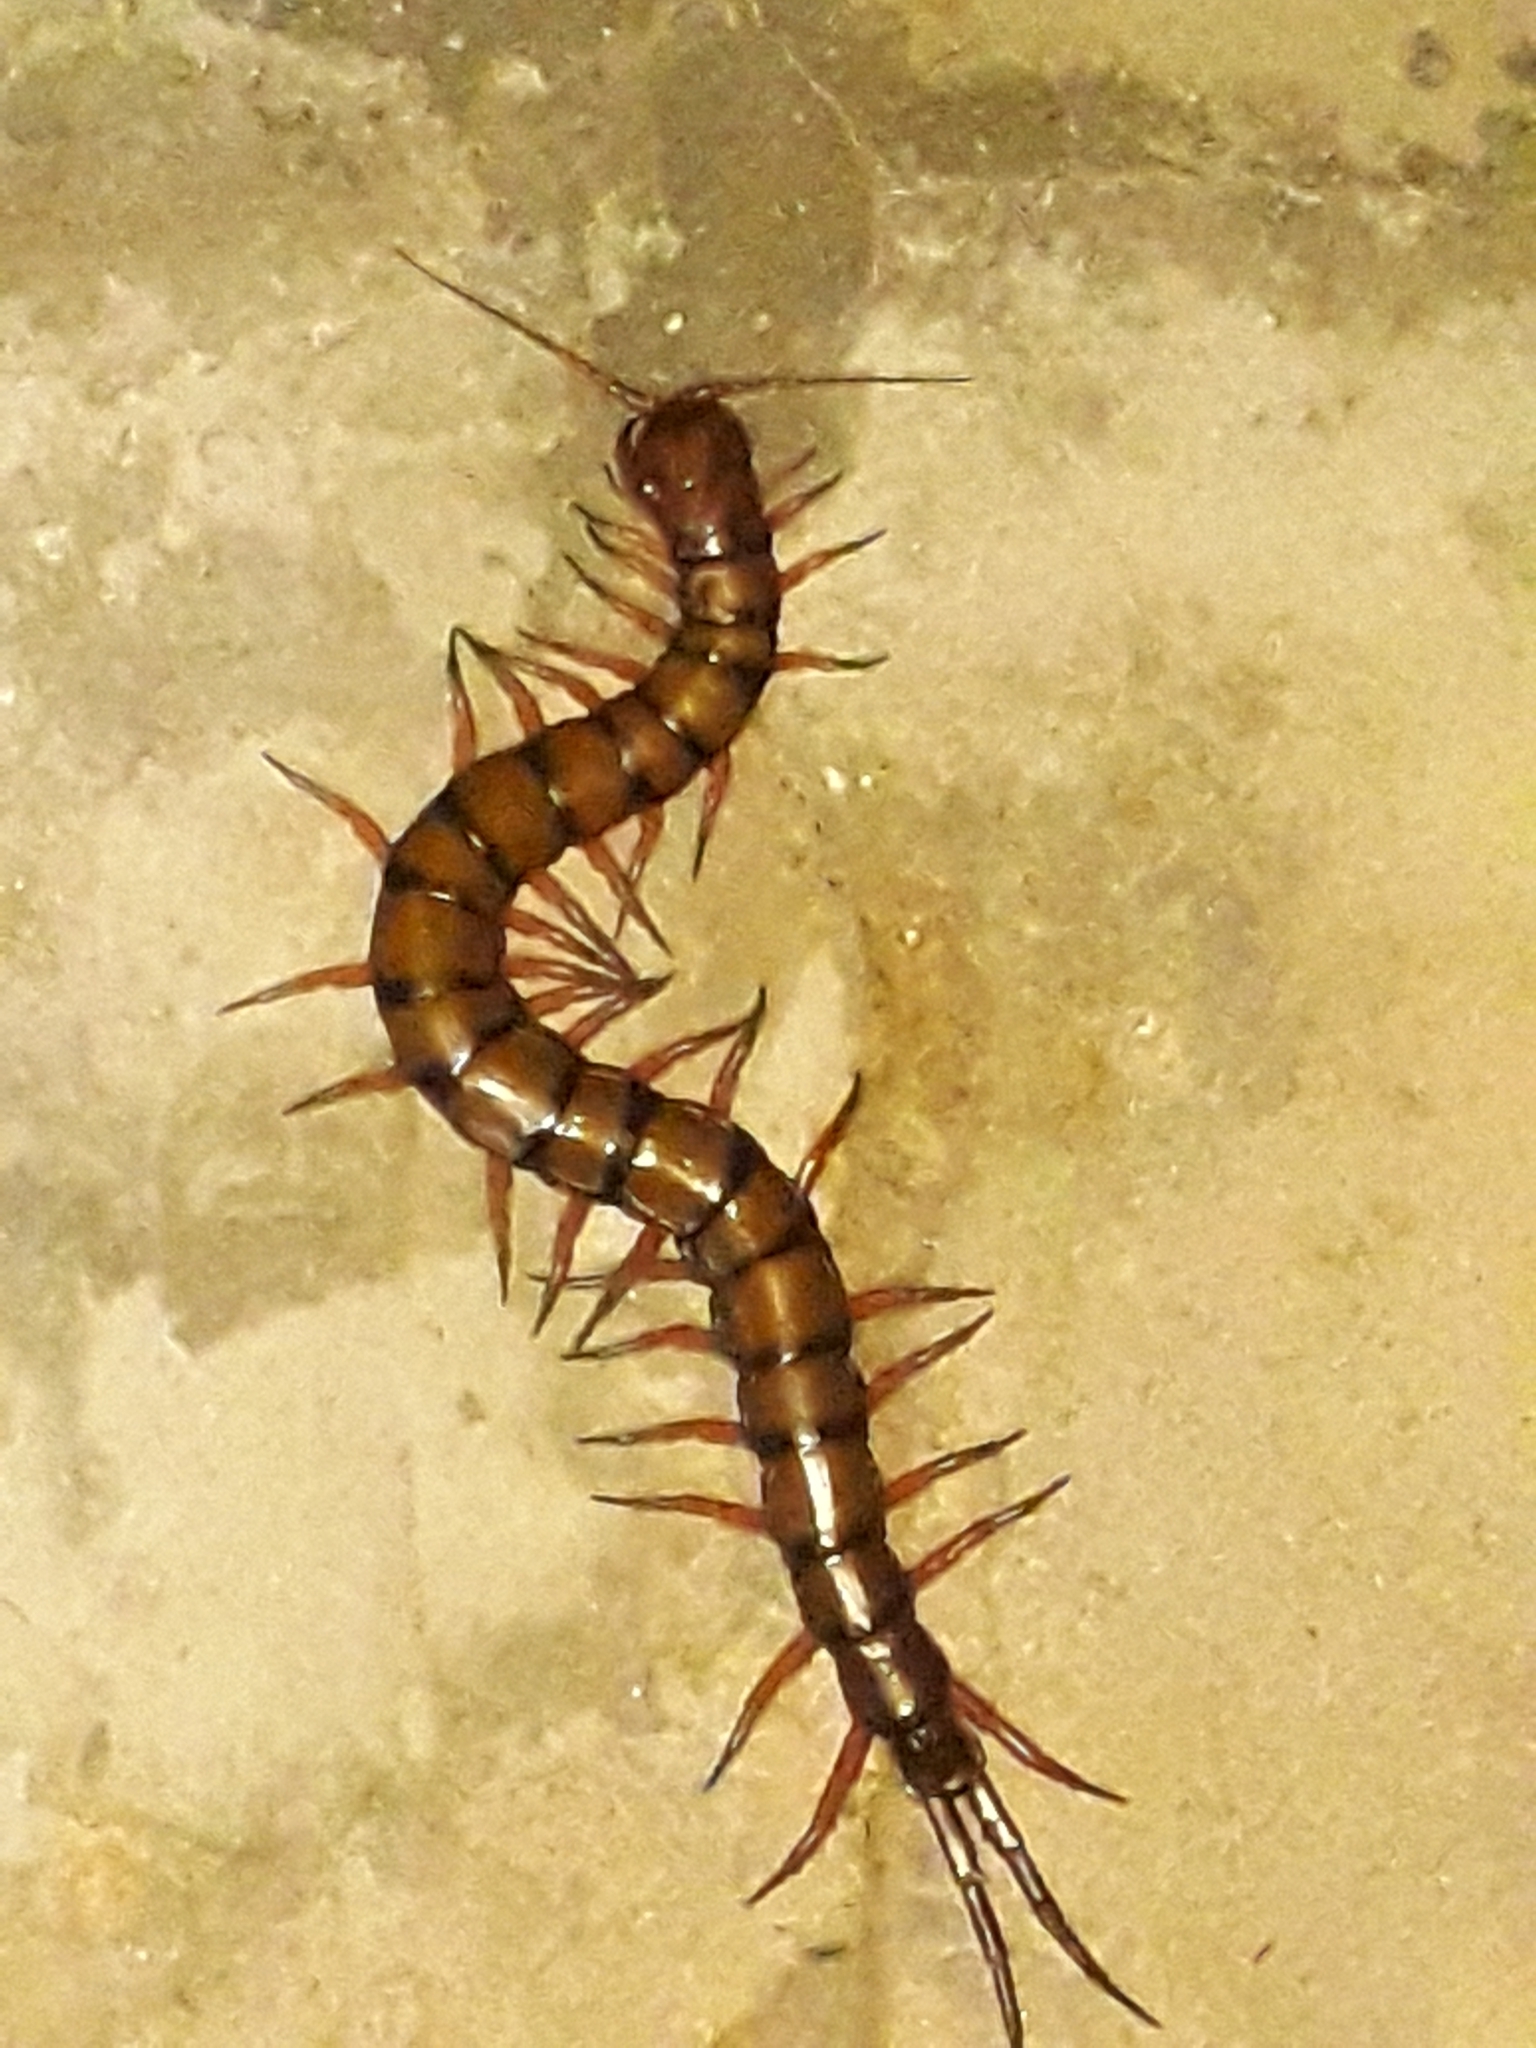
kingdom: Animalia
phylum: Arthropoda
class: Chilopoda
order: Scolopendromorpha
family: Scolopendridae
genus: Scolopendra
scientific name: Scolopendra subspinipes
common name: Centipede
